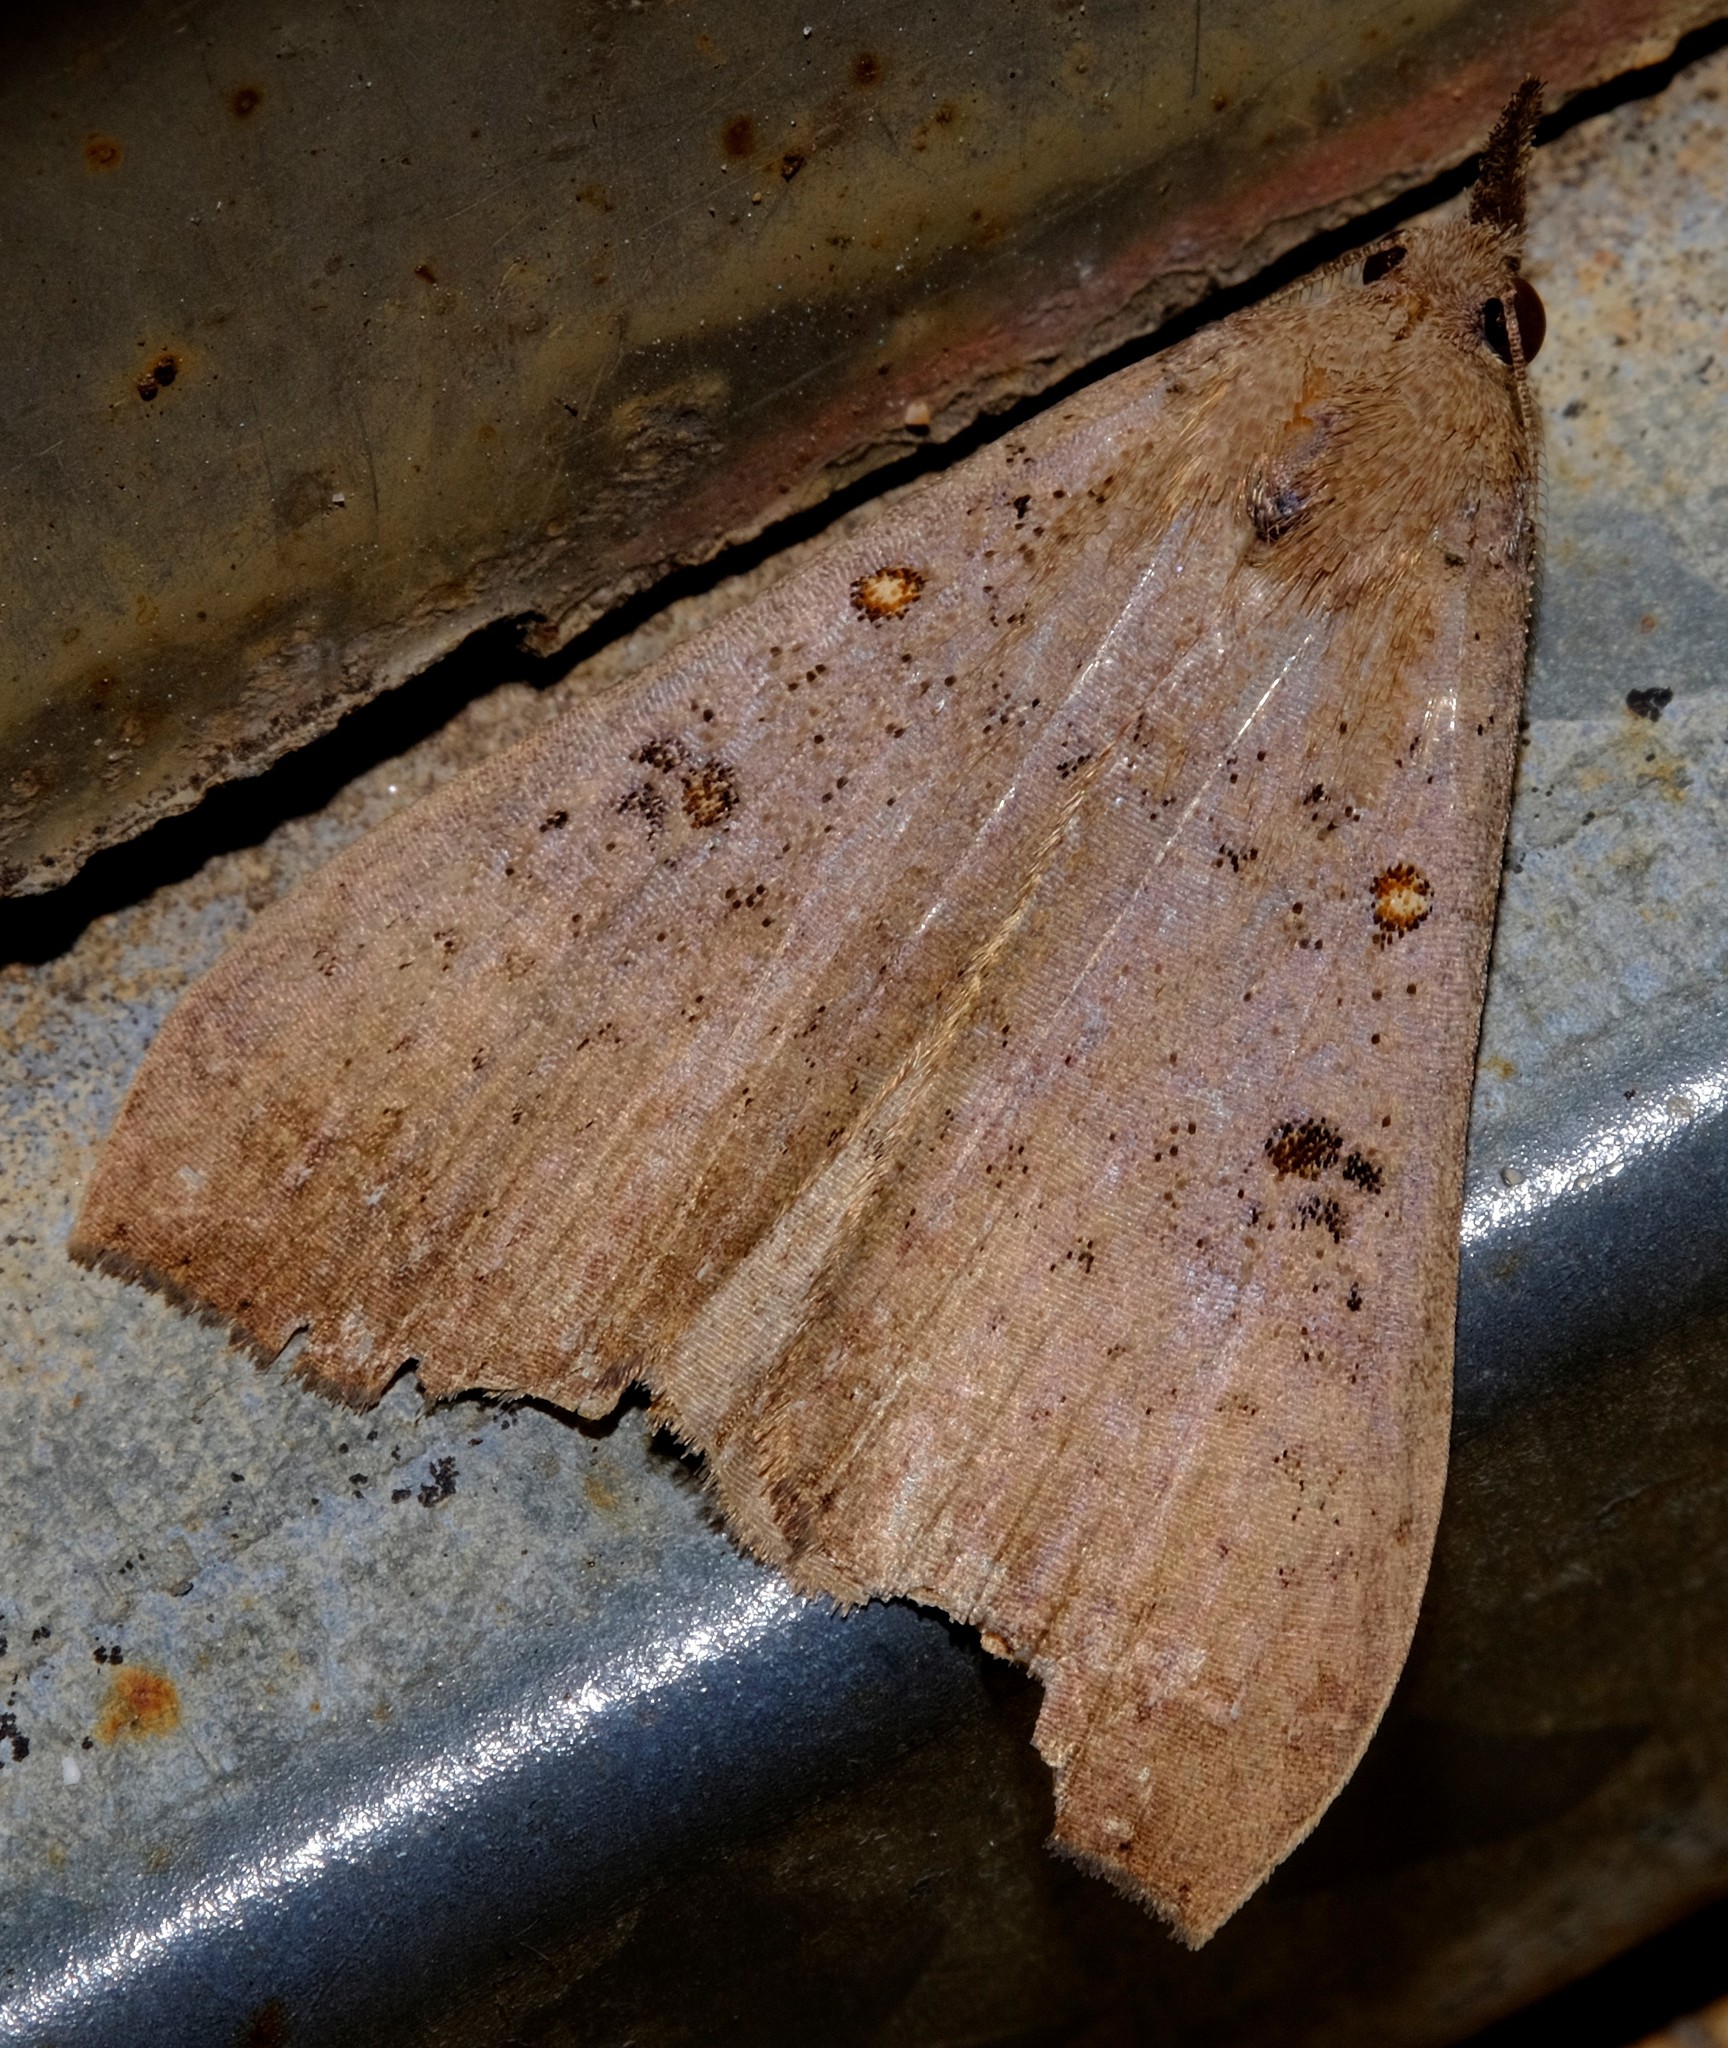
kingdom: Animalia
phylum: Arthropoda
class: Insecta
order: Lepidoptera
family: Erebidae
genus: Rhapsa
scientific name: Rhapsa suscitatalis
